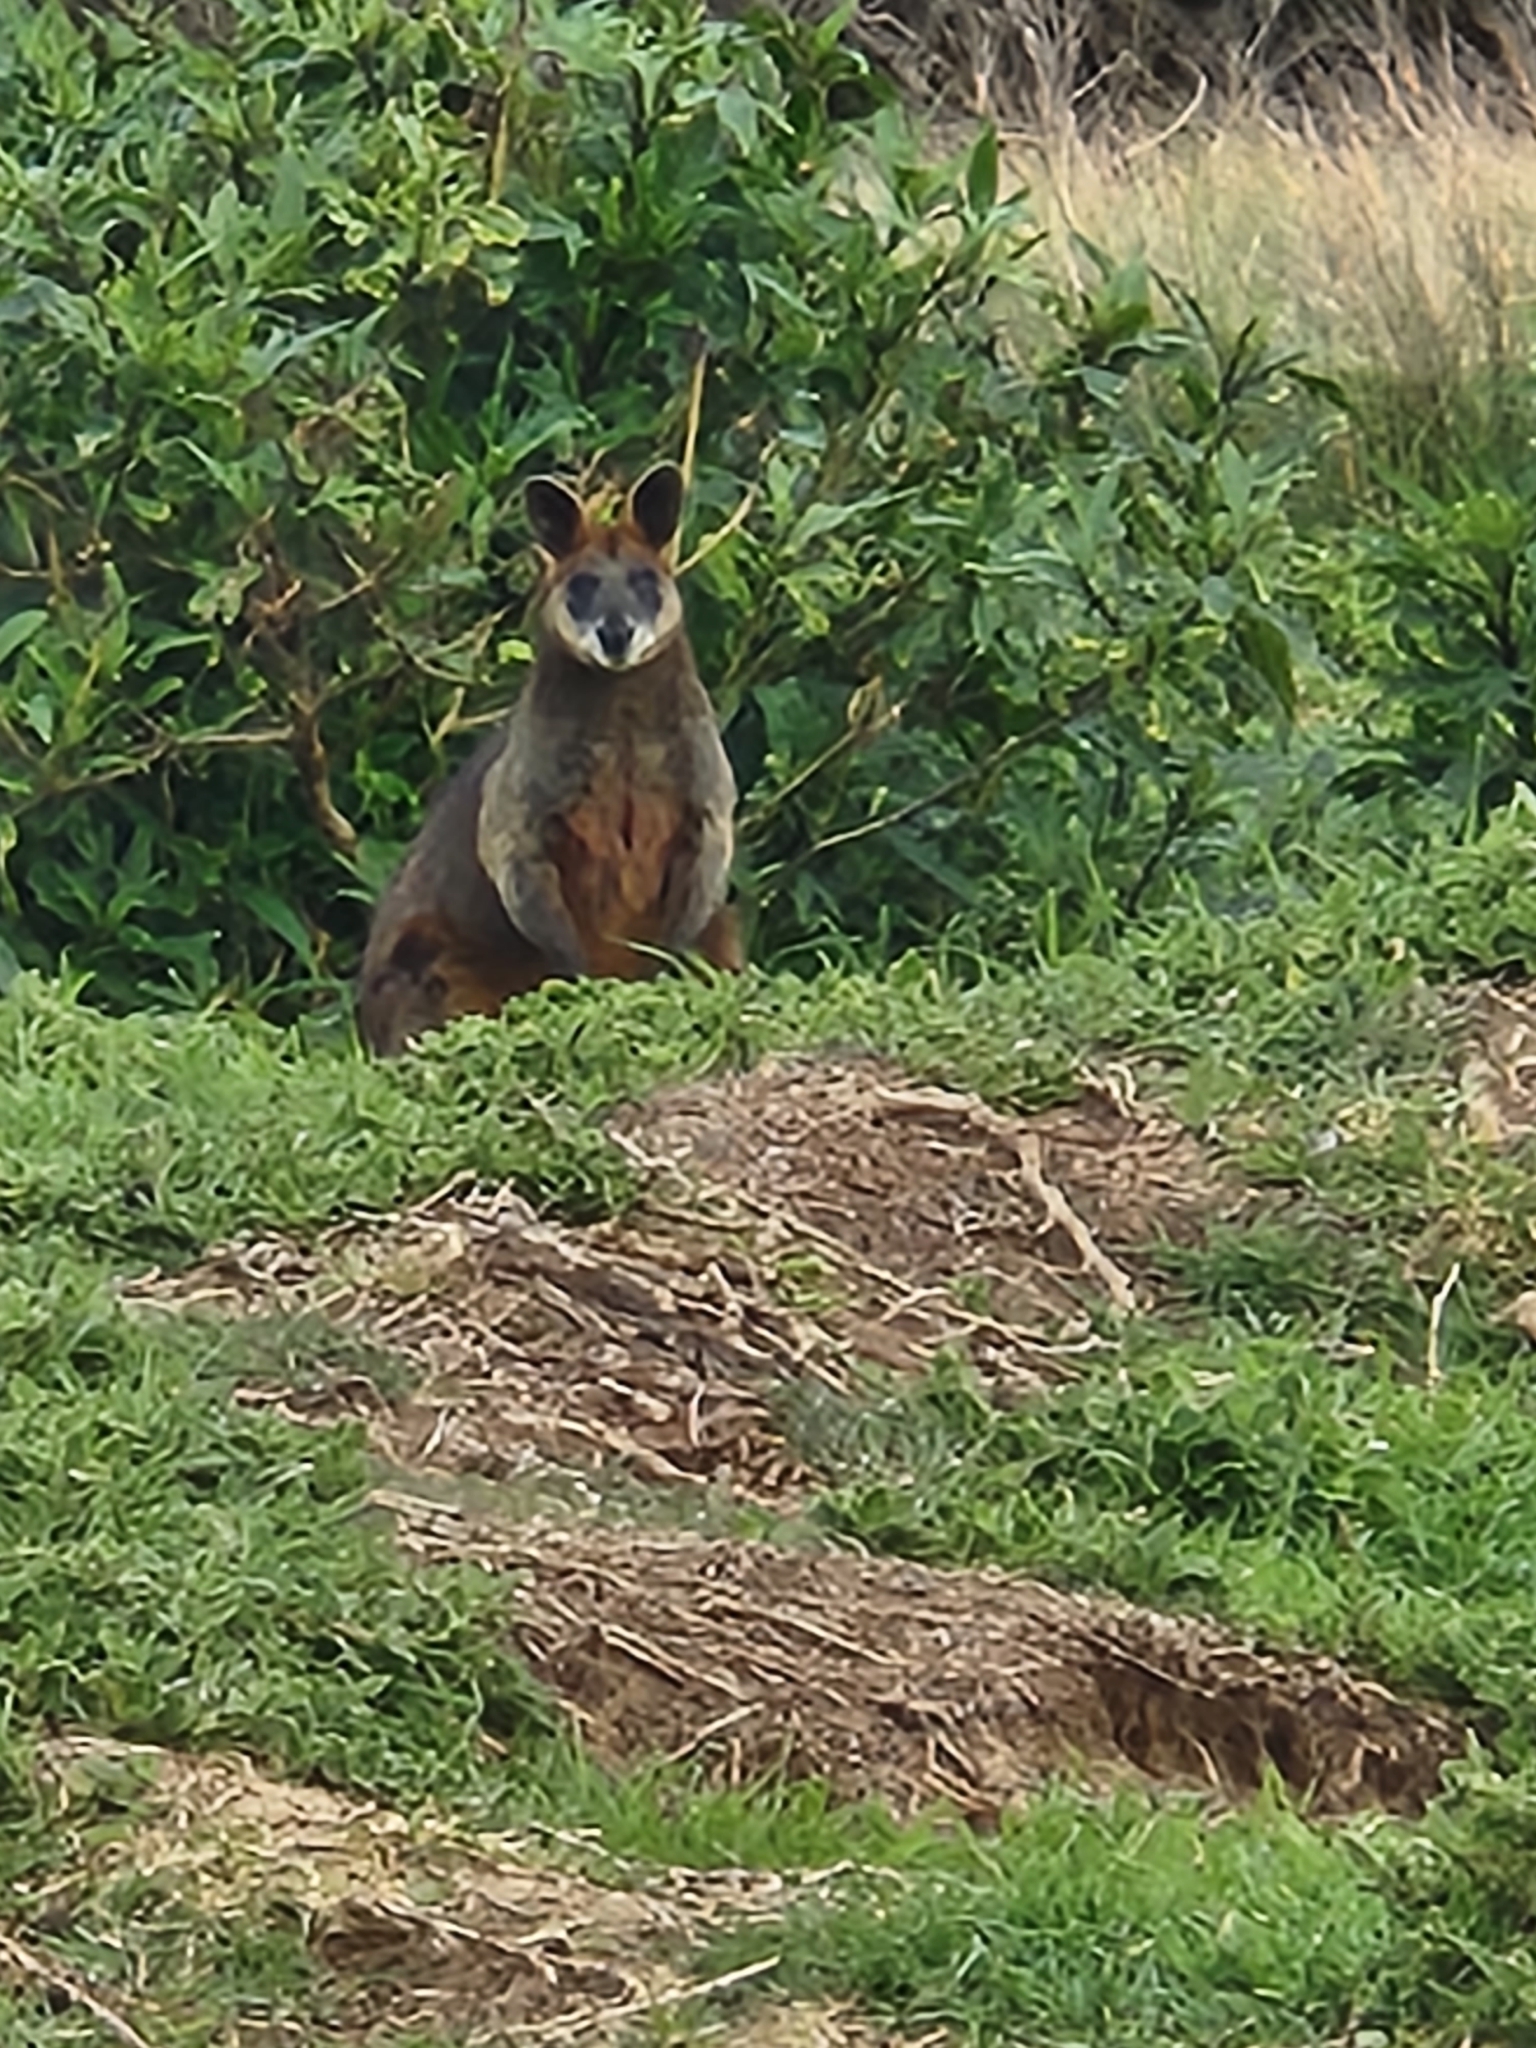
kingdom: Animalia
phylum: Chordata
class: Mammalia
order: Diprotodontia
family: Macropodidae
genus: Wallabia
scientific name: Wallabia bicolor
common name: Swamp wallaby
